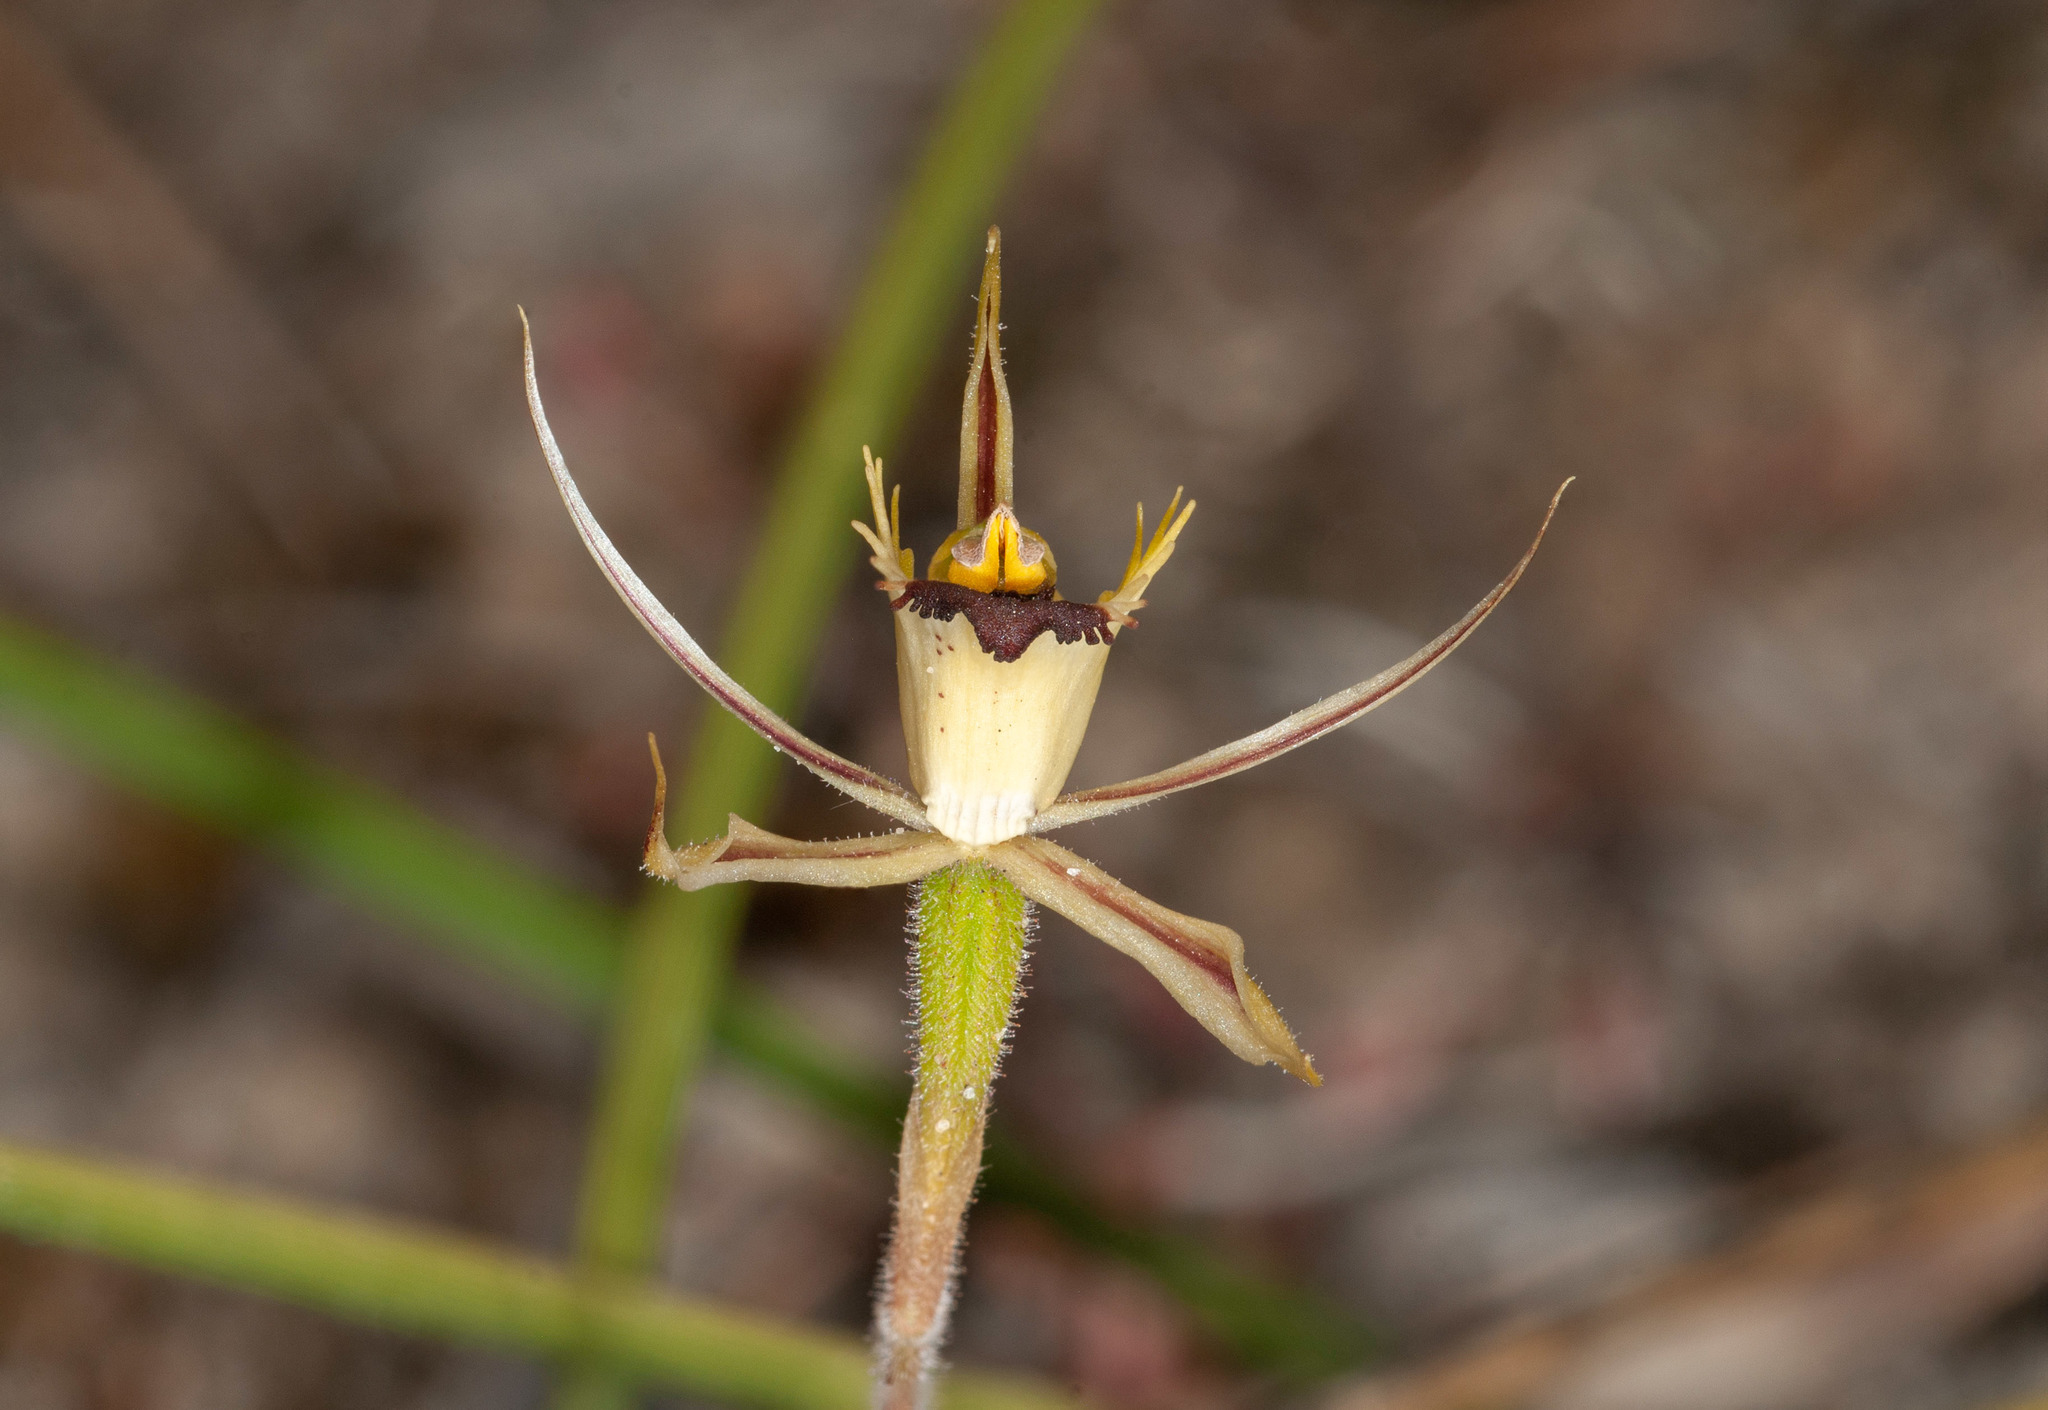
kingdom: Plantae
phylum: Tracheophyta
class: Liliopsida
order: Asparagales
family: Orchidaceae
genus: Caladenia
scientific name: Caladenia stricta
